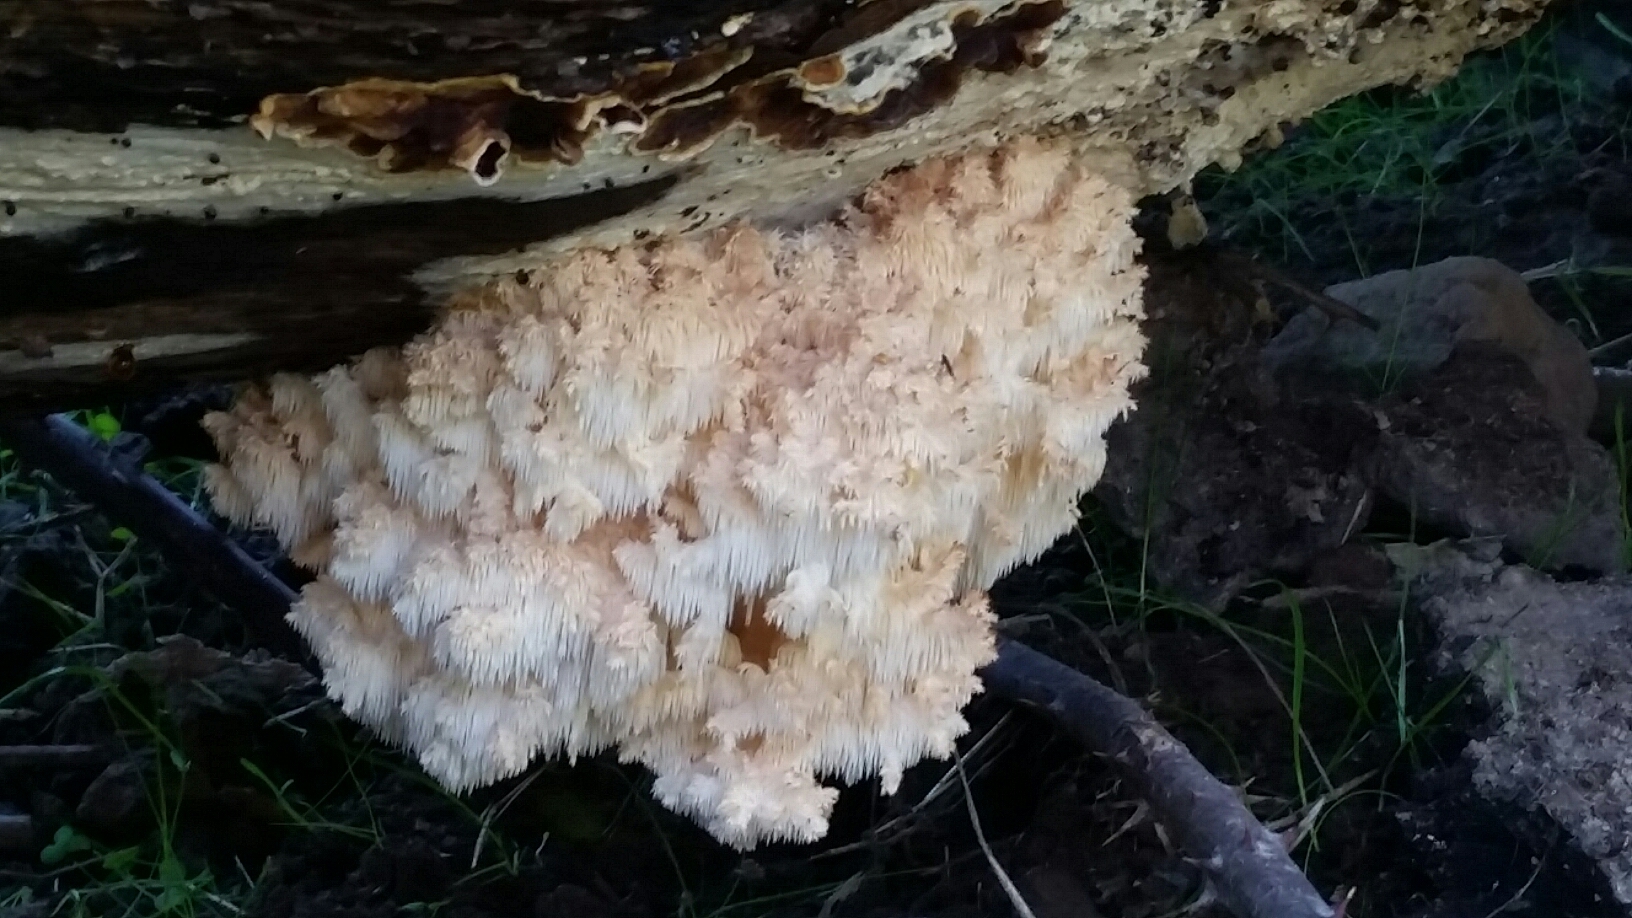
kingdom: Fungi
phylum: Basidiomycota
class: Agaricomycetes
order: Russulales
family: Hericiaceae
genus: Hericium
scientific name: Hericium coralloides
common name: Coral tooth
